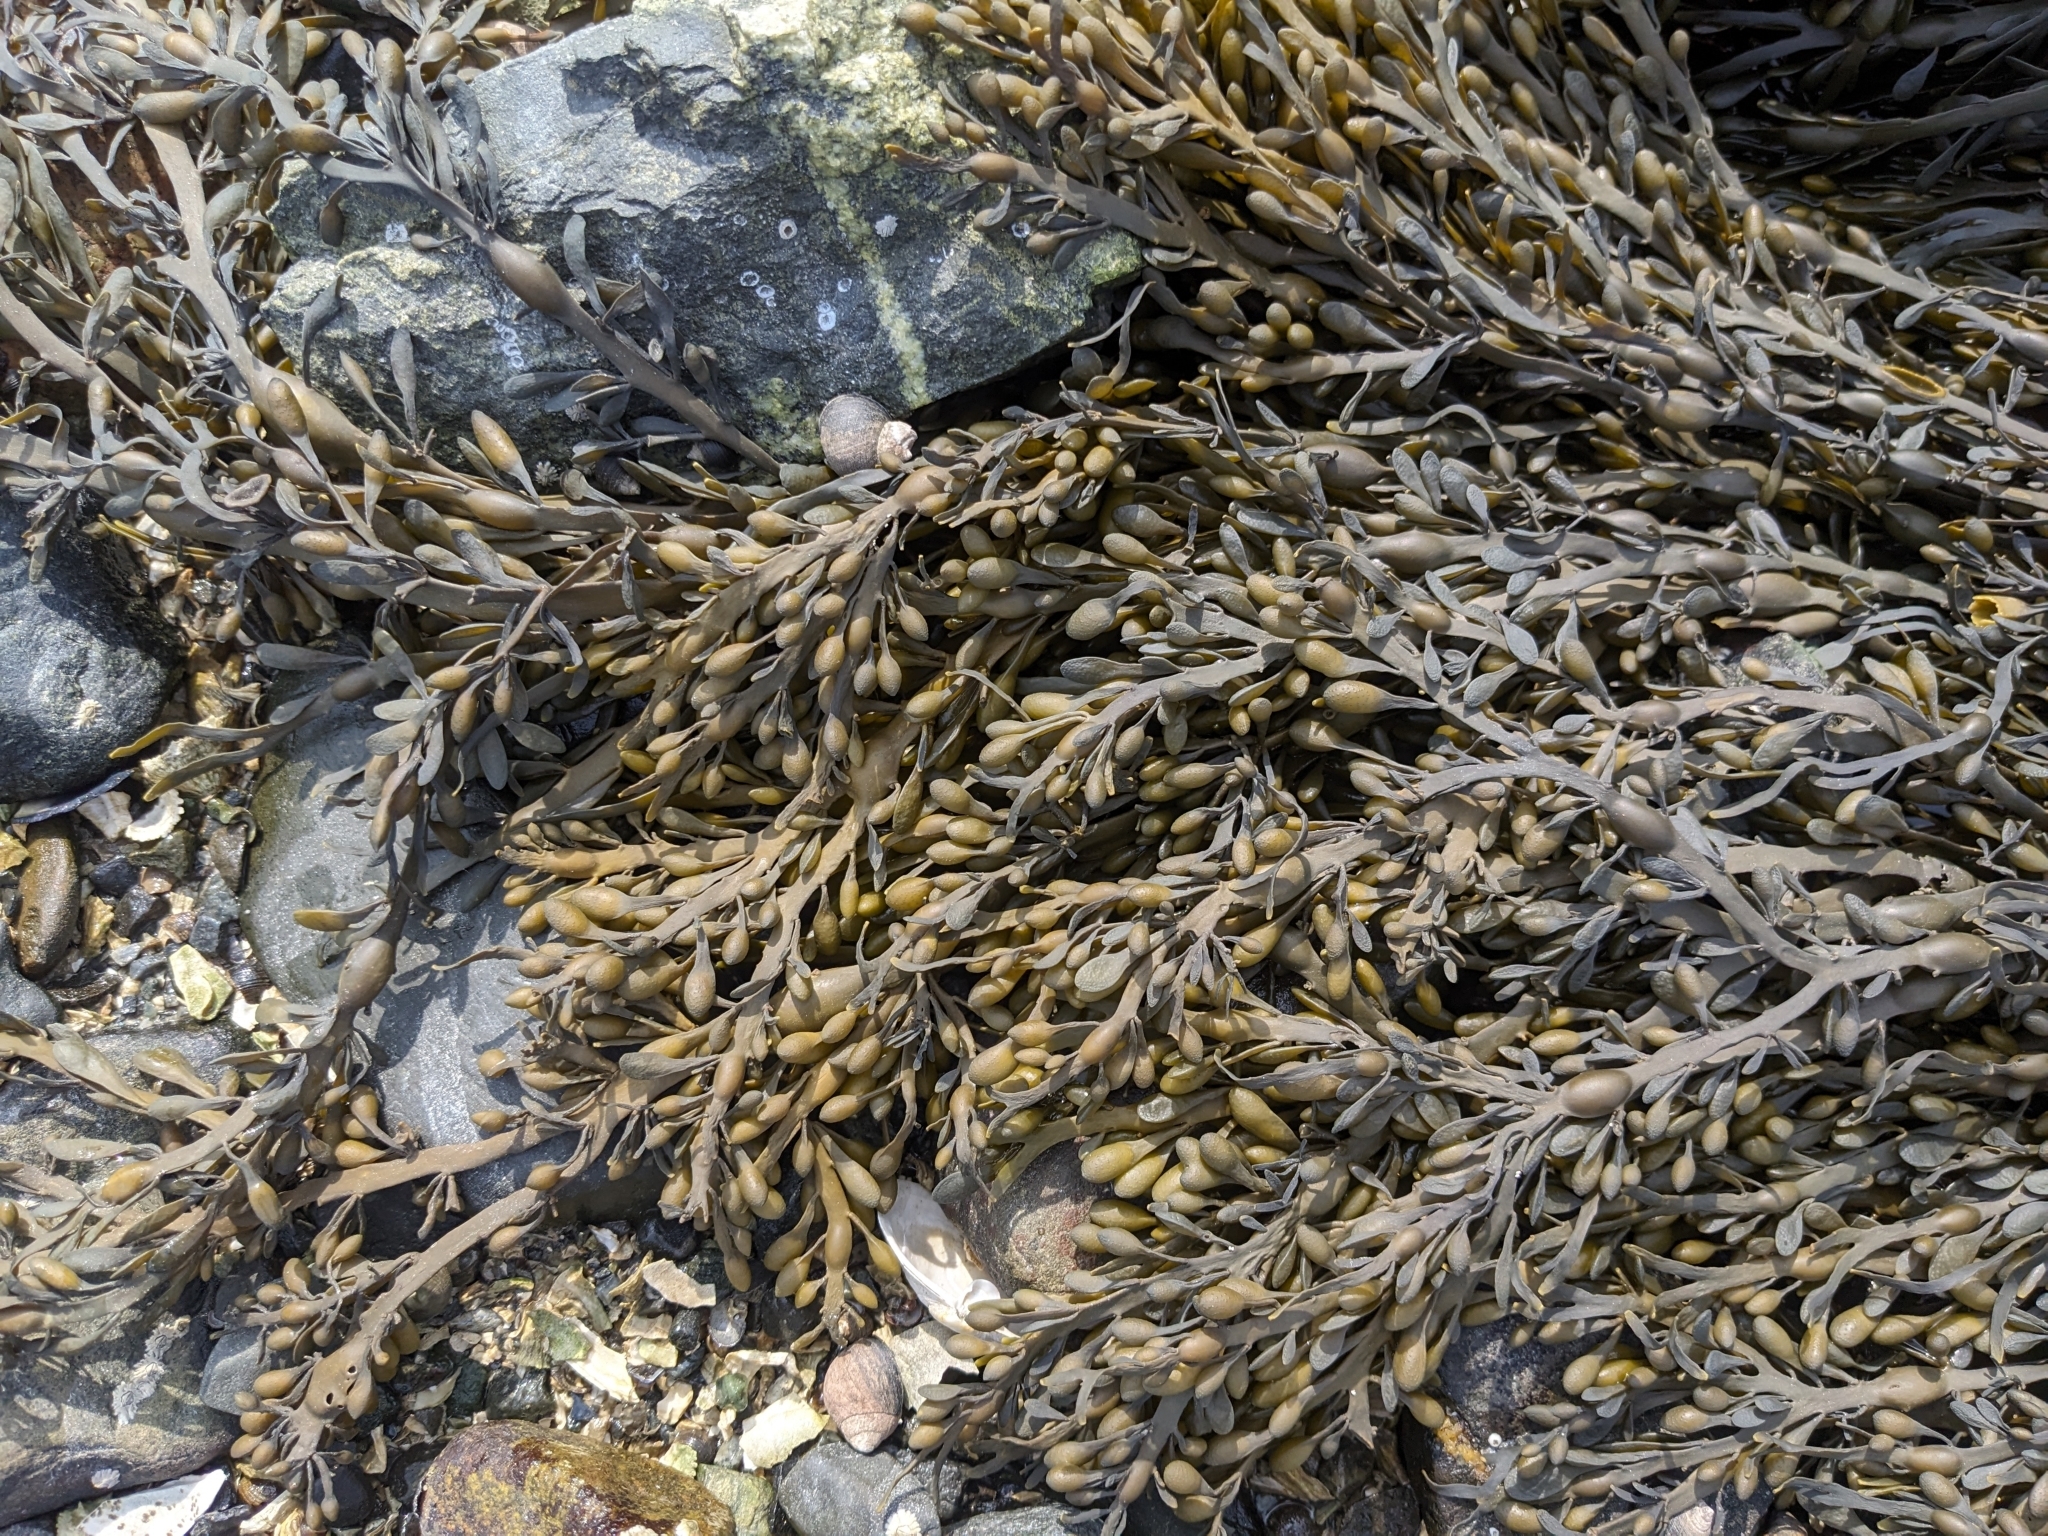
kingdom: Chromista
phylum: Ochrophyta
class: Phaeophyceae
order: Fucales
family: Fucaceae
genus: Ascophyllum
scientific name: Ascophyllum nodosum
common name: Knotted wrack
